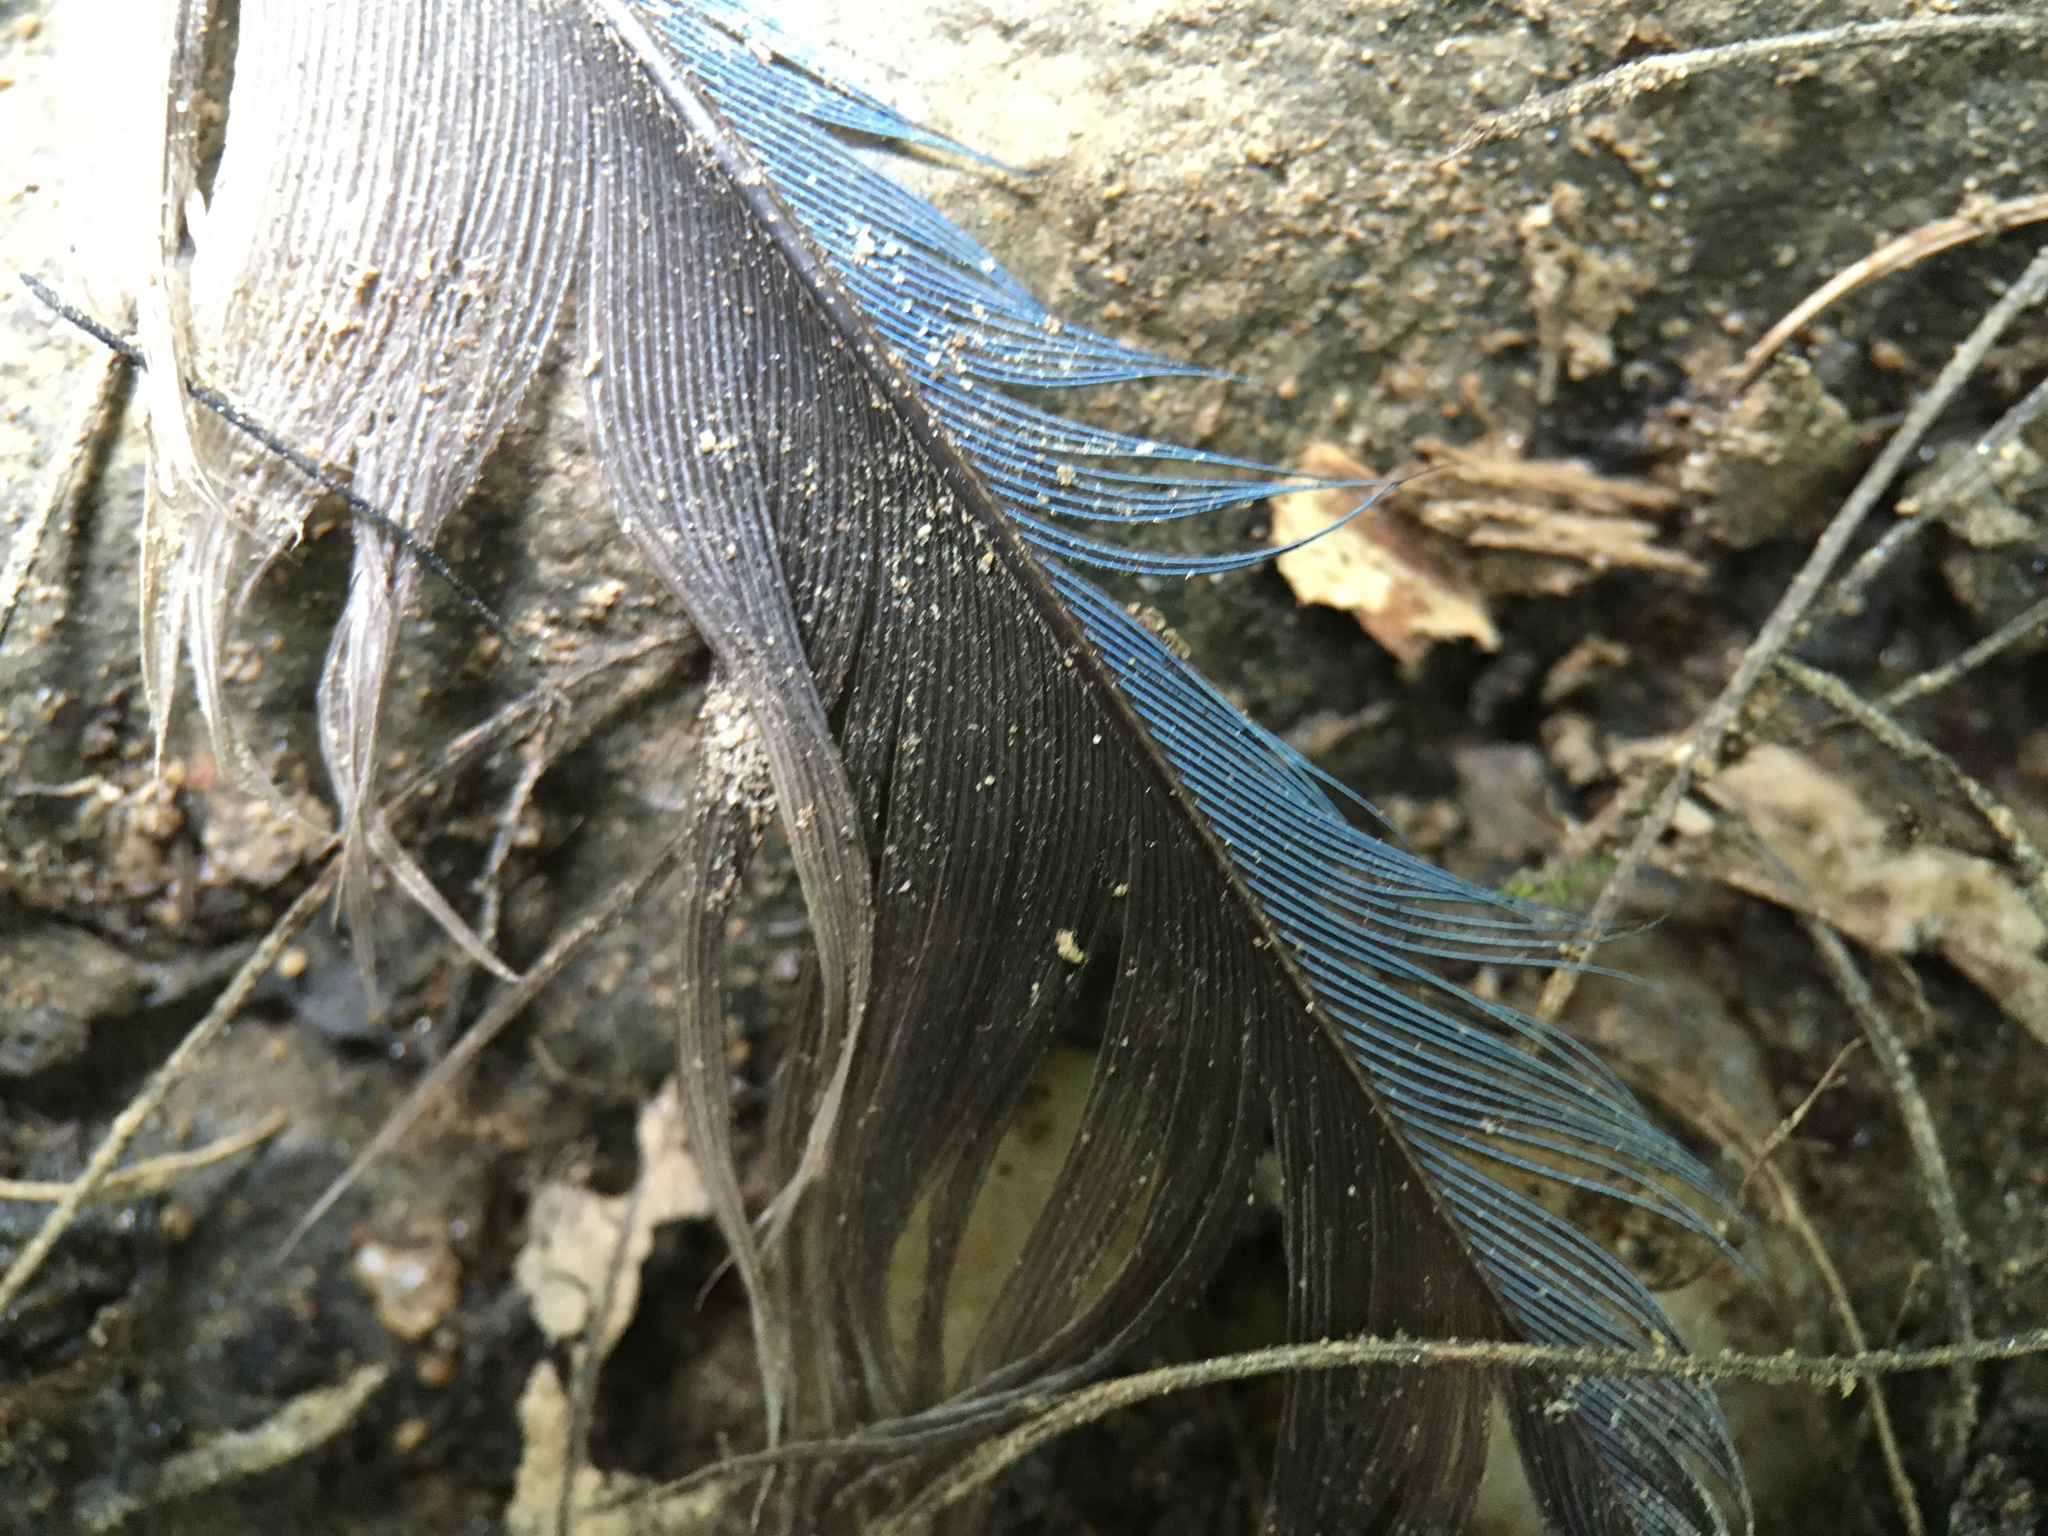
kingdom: Animalia
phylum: Chordata
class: Aves
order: Passeriformes
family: Corvidae
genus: Cyanocitta
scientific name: Cyanocitta cristata
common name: Blue jay
